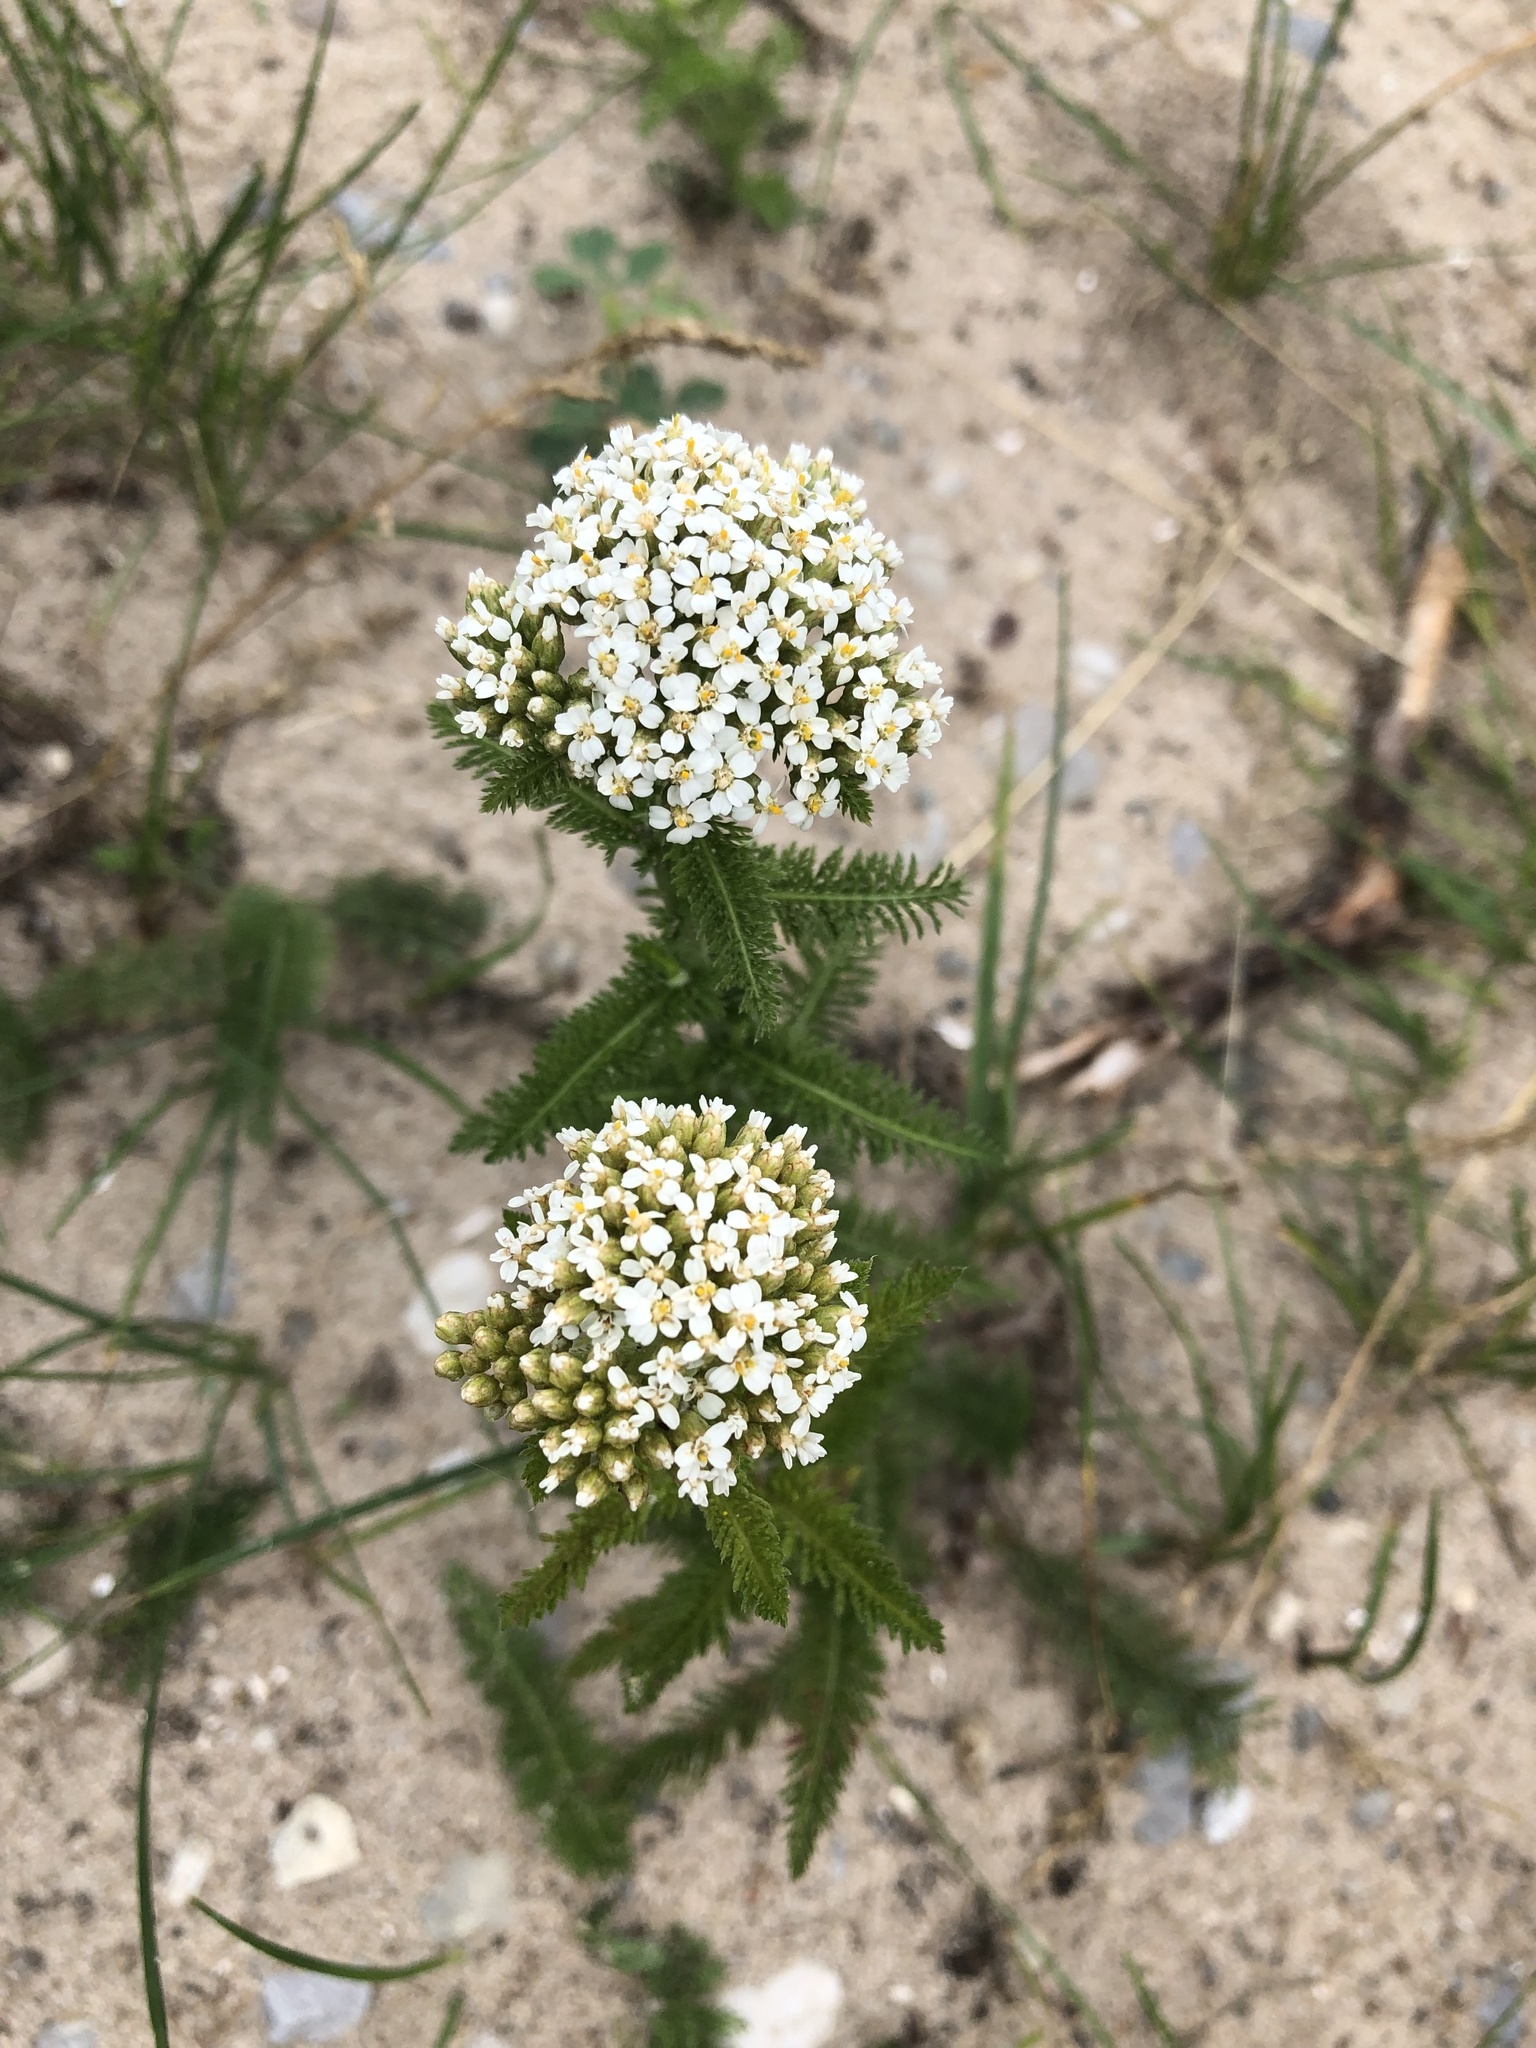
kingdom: Plantae
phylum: Tracheophyta
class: Magnoliopsida
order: Asterales
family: Asteraceae
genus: Achillea
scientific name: Achillea millefolium
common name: Yarrow
